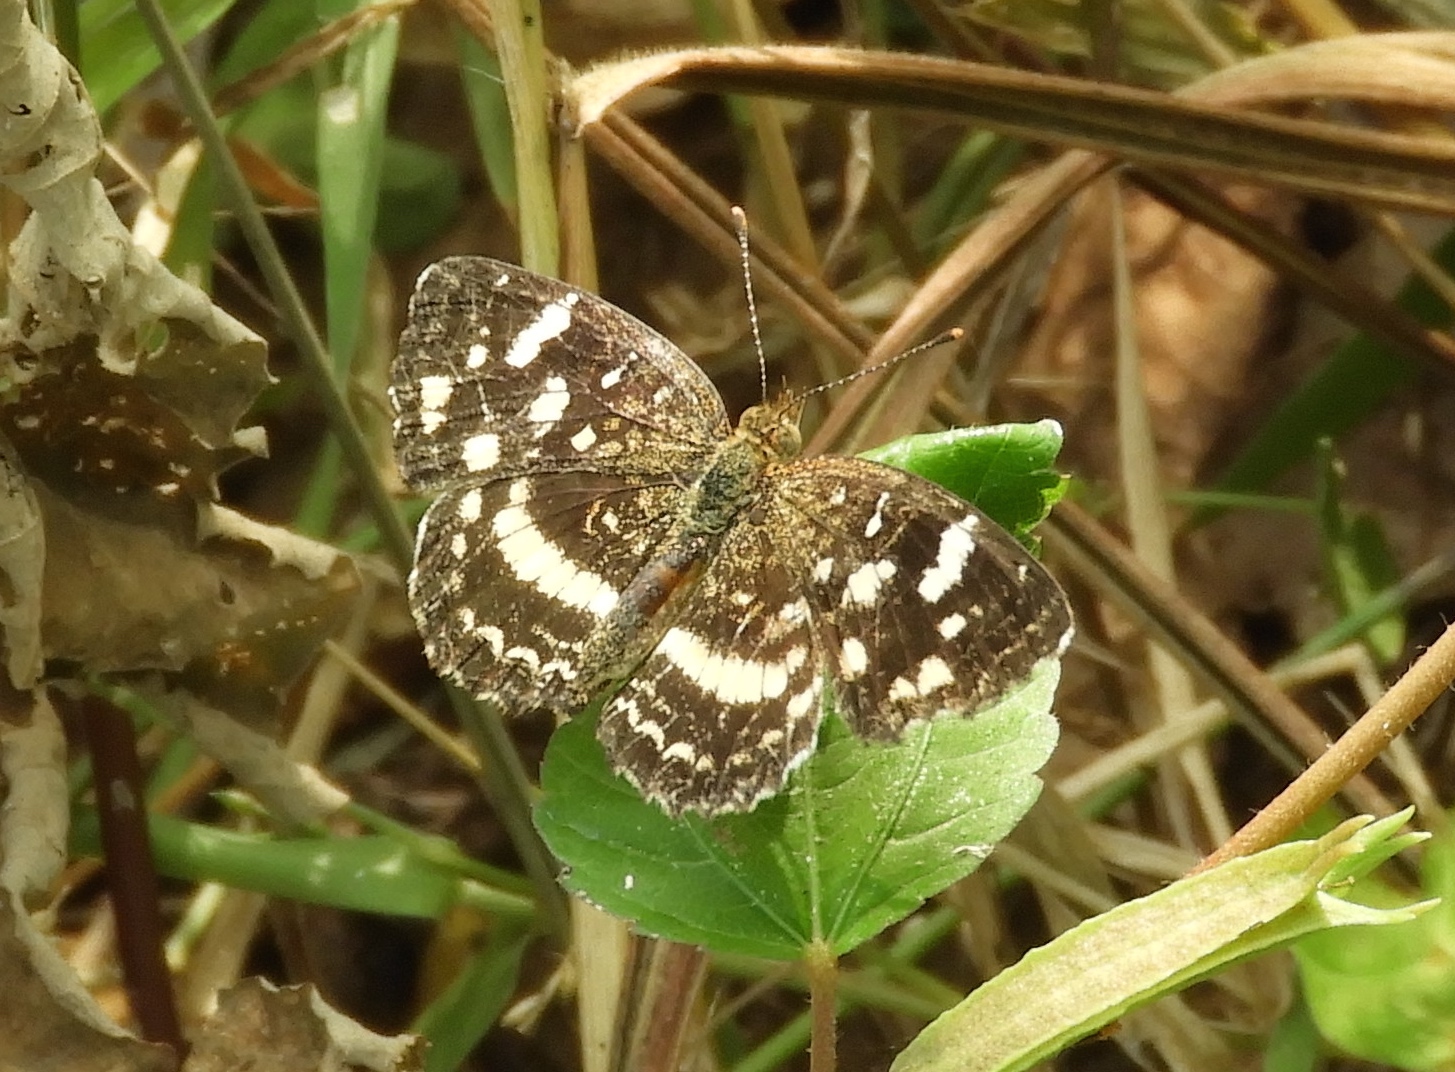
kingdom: Animalia
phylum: Arthropoda
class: Insecta
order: Lepidoptera
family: Nymphalidae
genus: Anthanassa
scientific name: Anthanassa tulcis
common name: Pale-banded crescent
